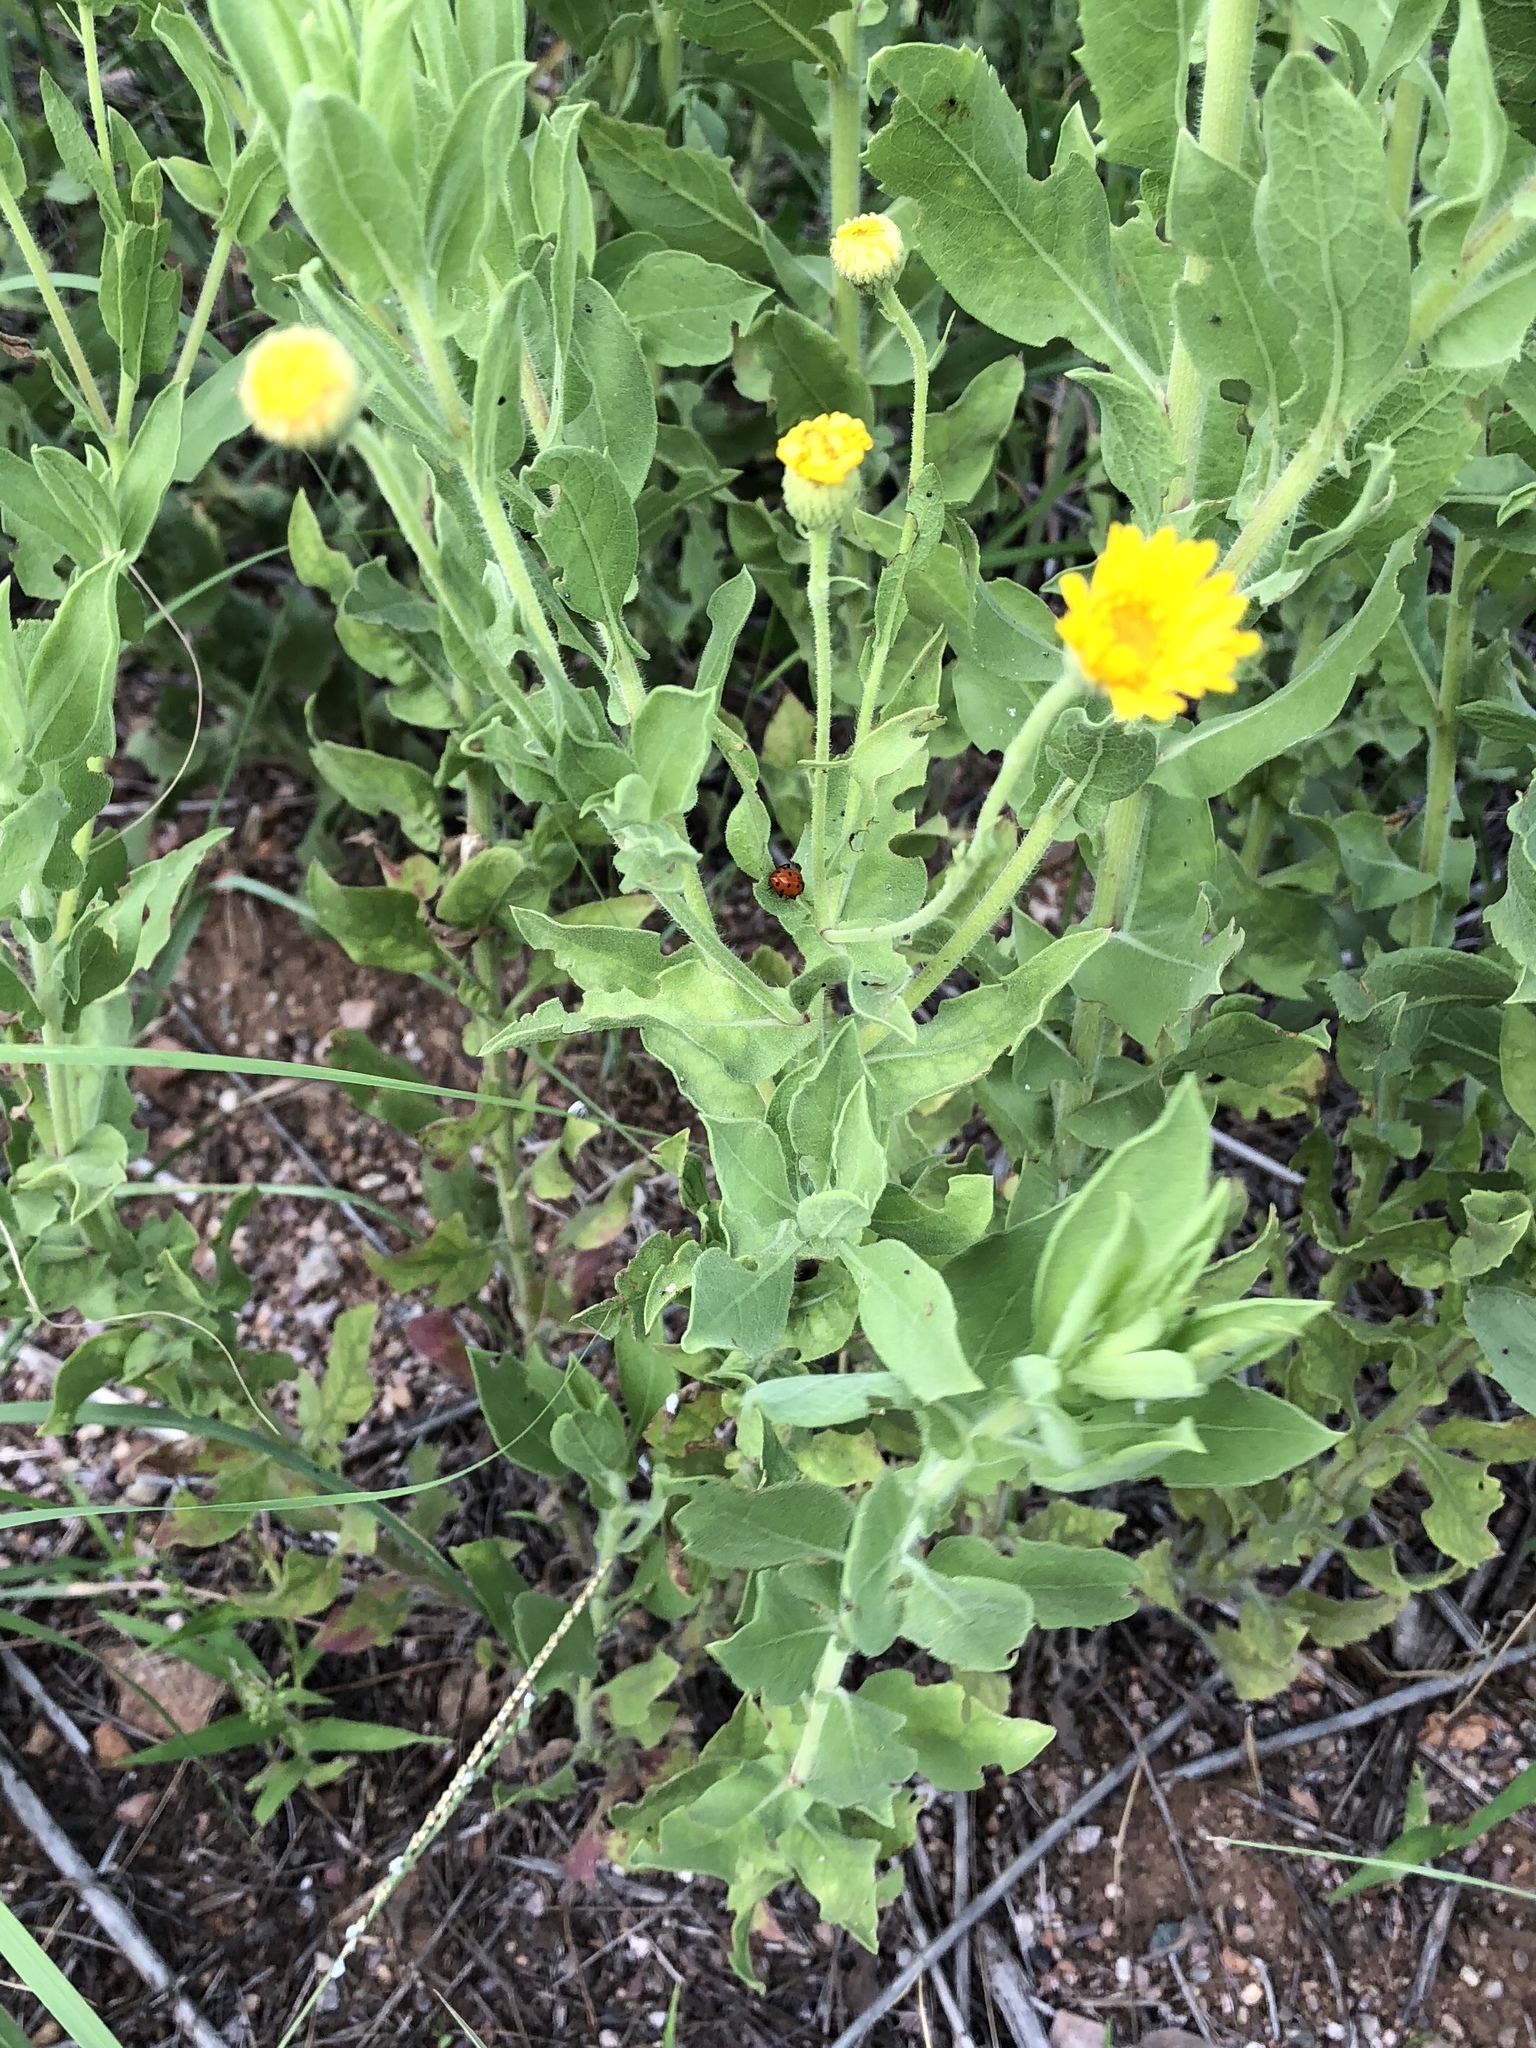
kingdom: Plantae
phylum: Tracheophyta
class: Magnoliopsida
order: Asterales
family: Asteraceae
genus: Heterotheca
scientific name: Heterotheca subaxillaris
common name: Camphorweed
